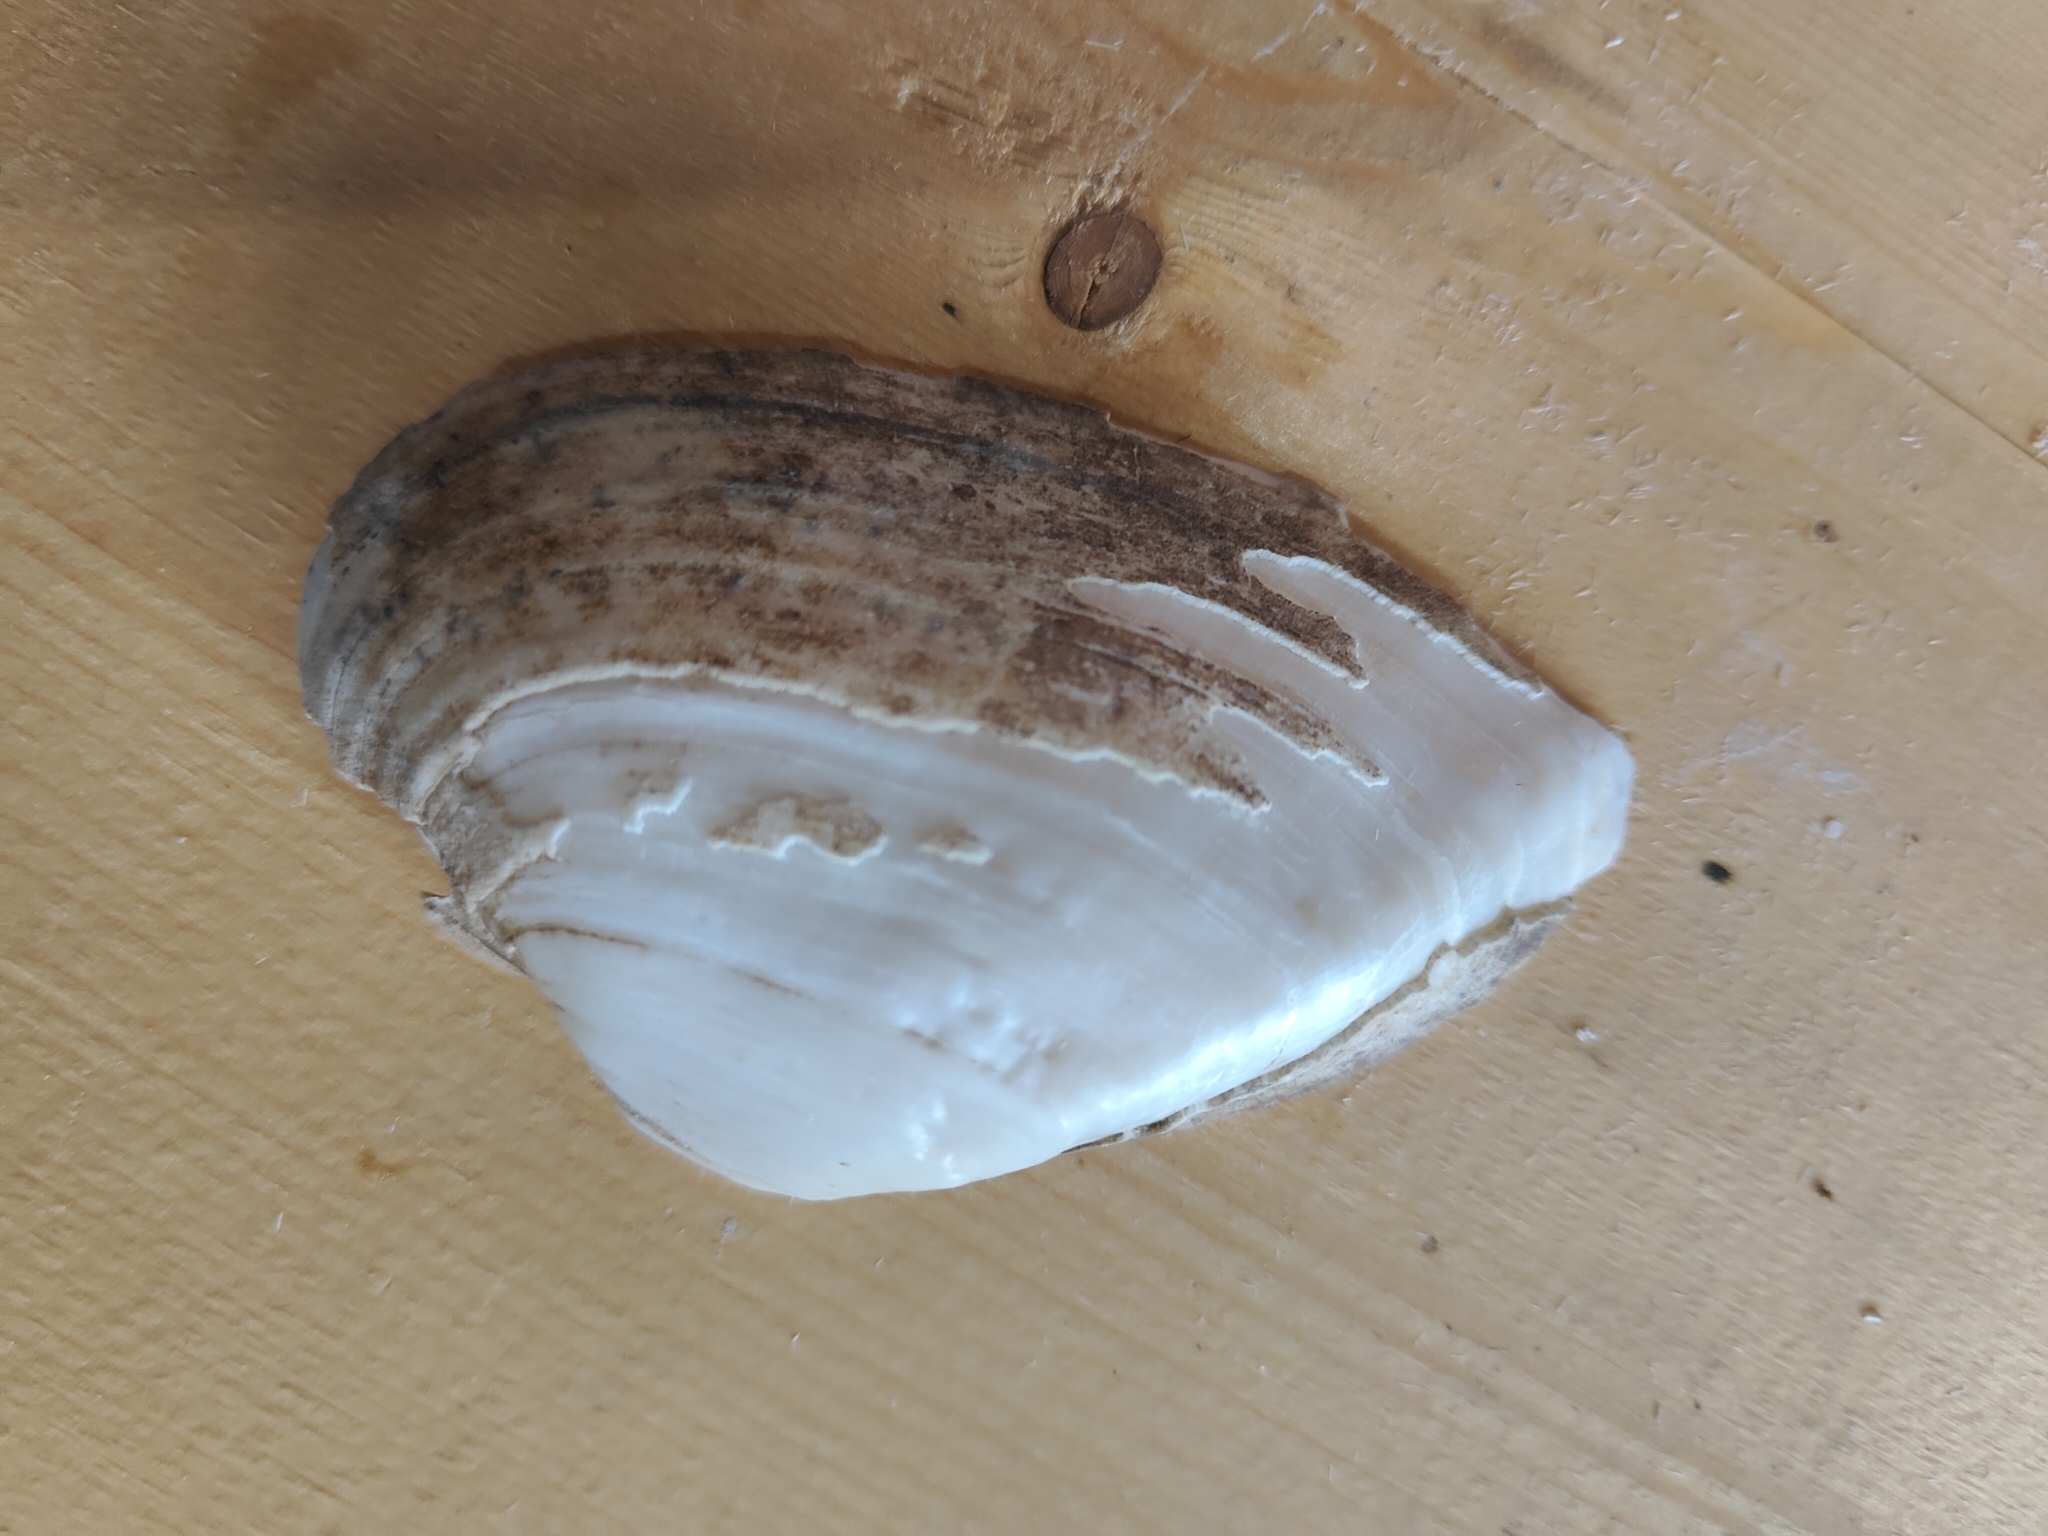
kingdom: Animalia
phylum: Mollusca
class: Bivalvia
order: Unionida
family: Unionidae
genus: Alasmidonta
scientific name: Alasmidonta marginata
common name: Elktoe
